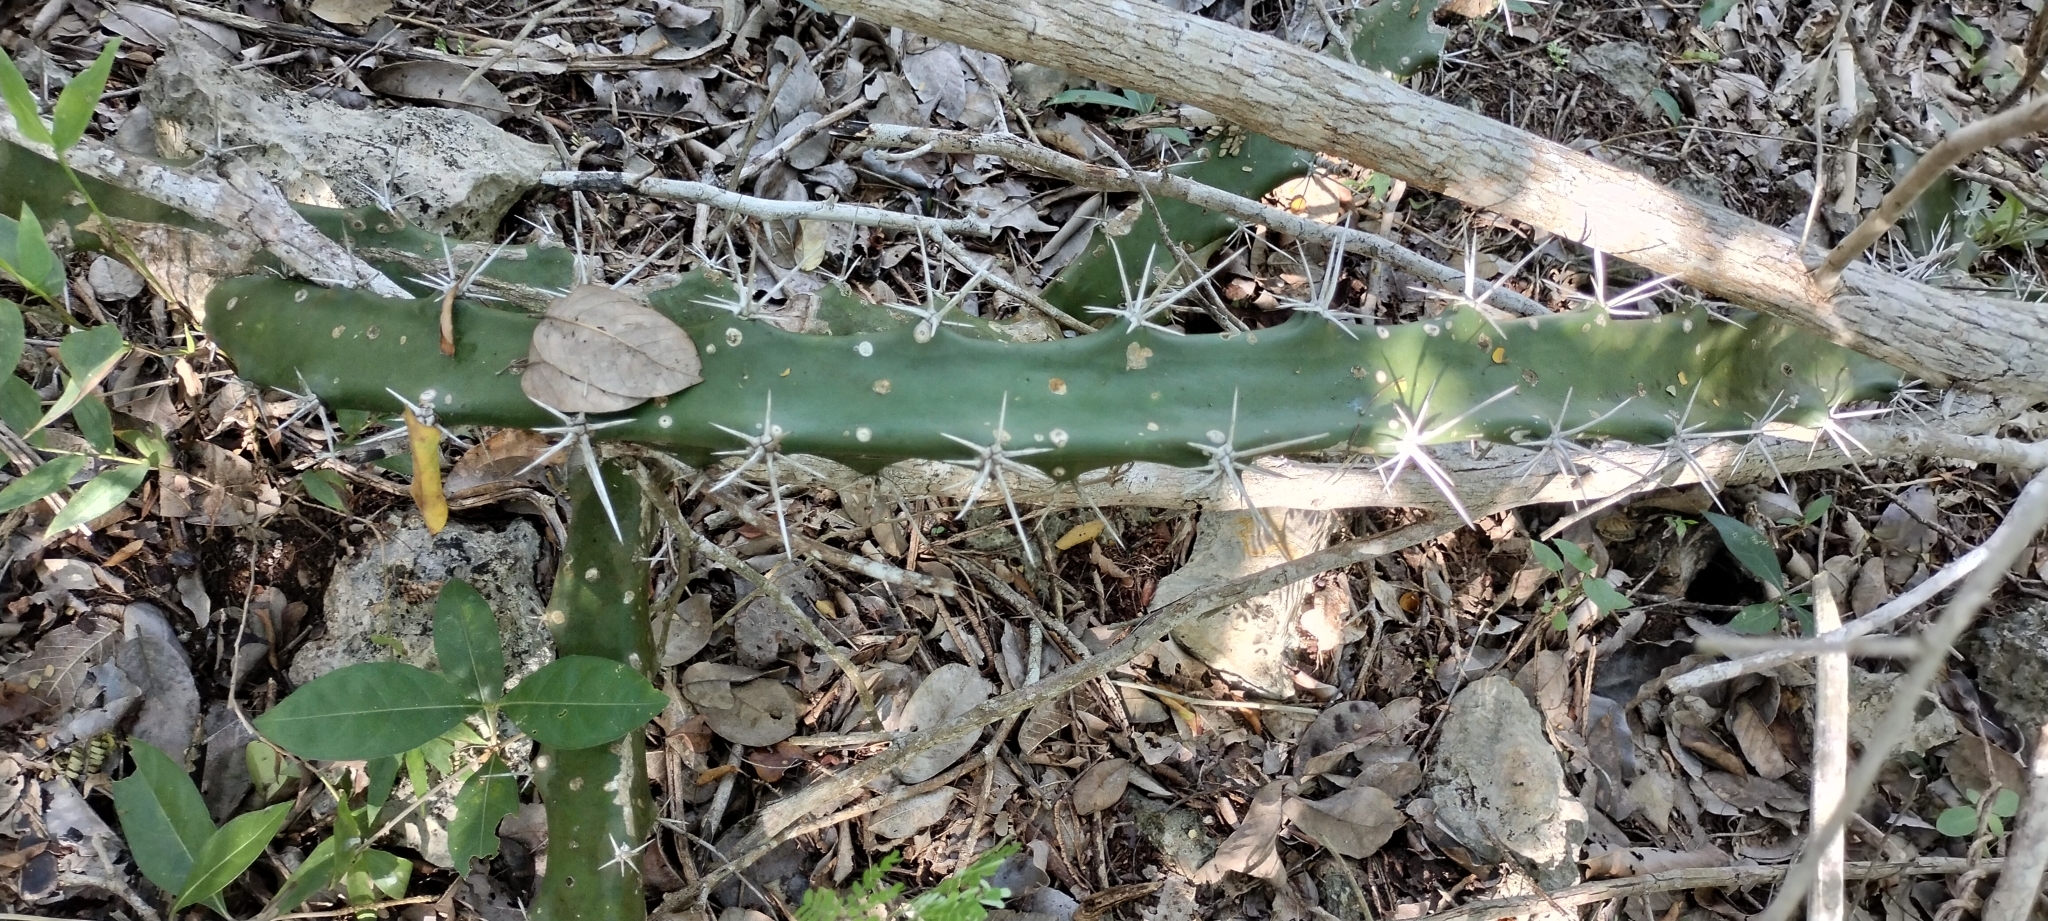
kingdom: Plantae
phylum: Tracheophyta
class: Magnoliopsida
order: Caryophyllales
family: Cactaceae
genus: Acanthocereus
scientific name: Acanthocereus tetragonus
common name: Triangle cactus
